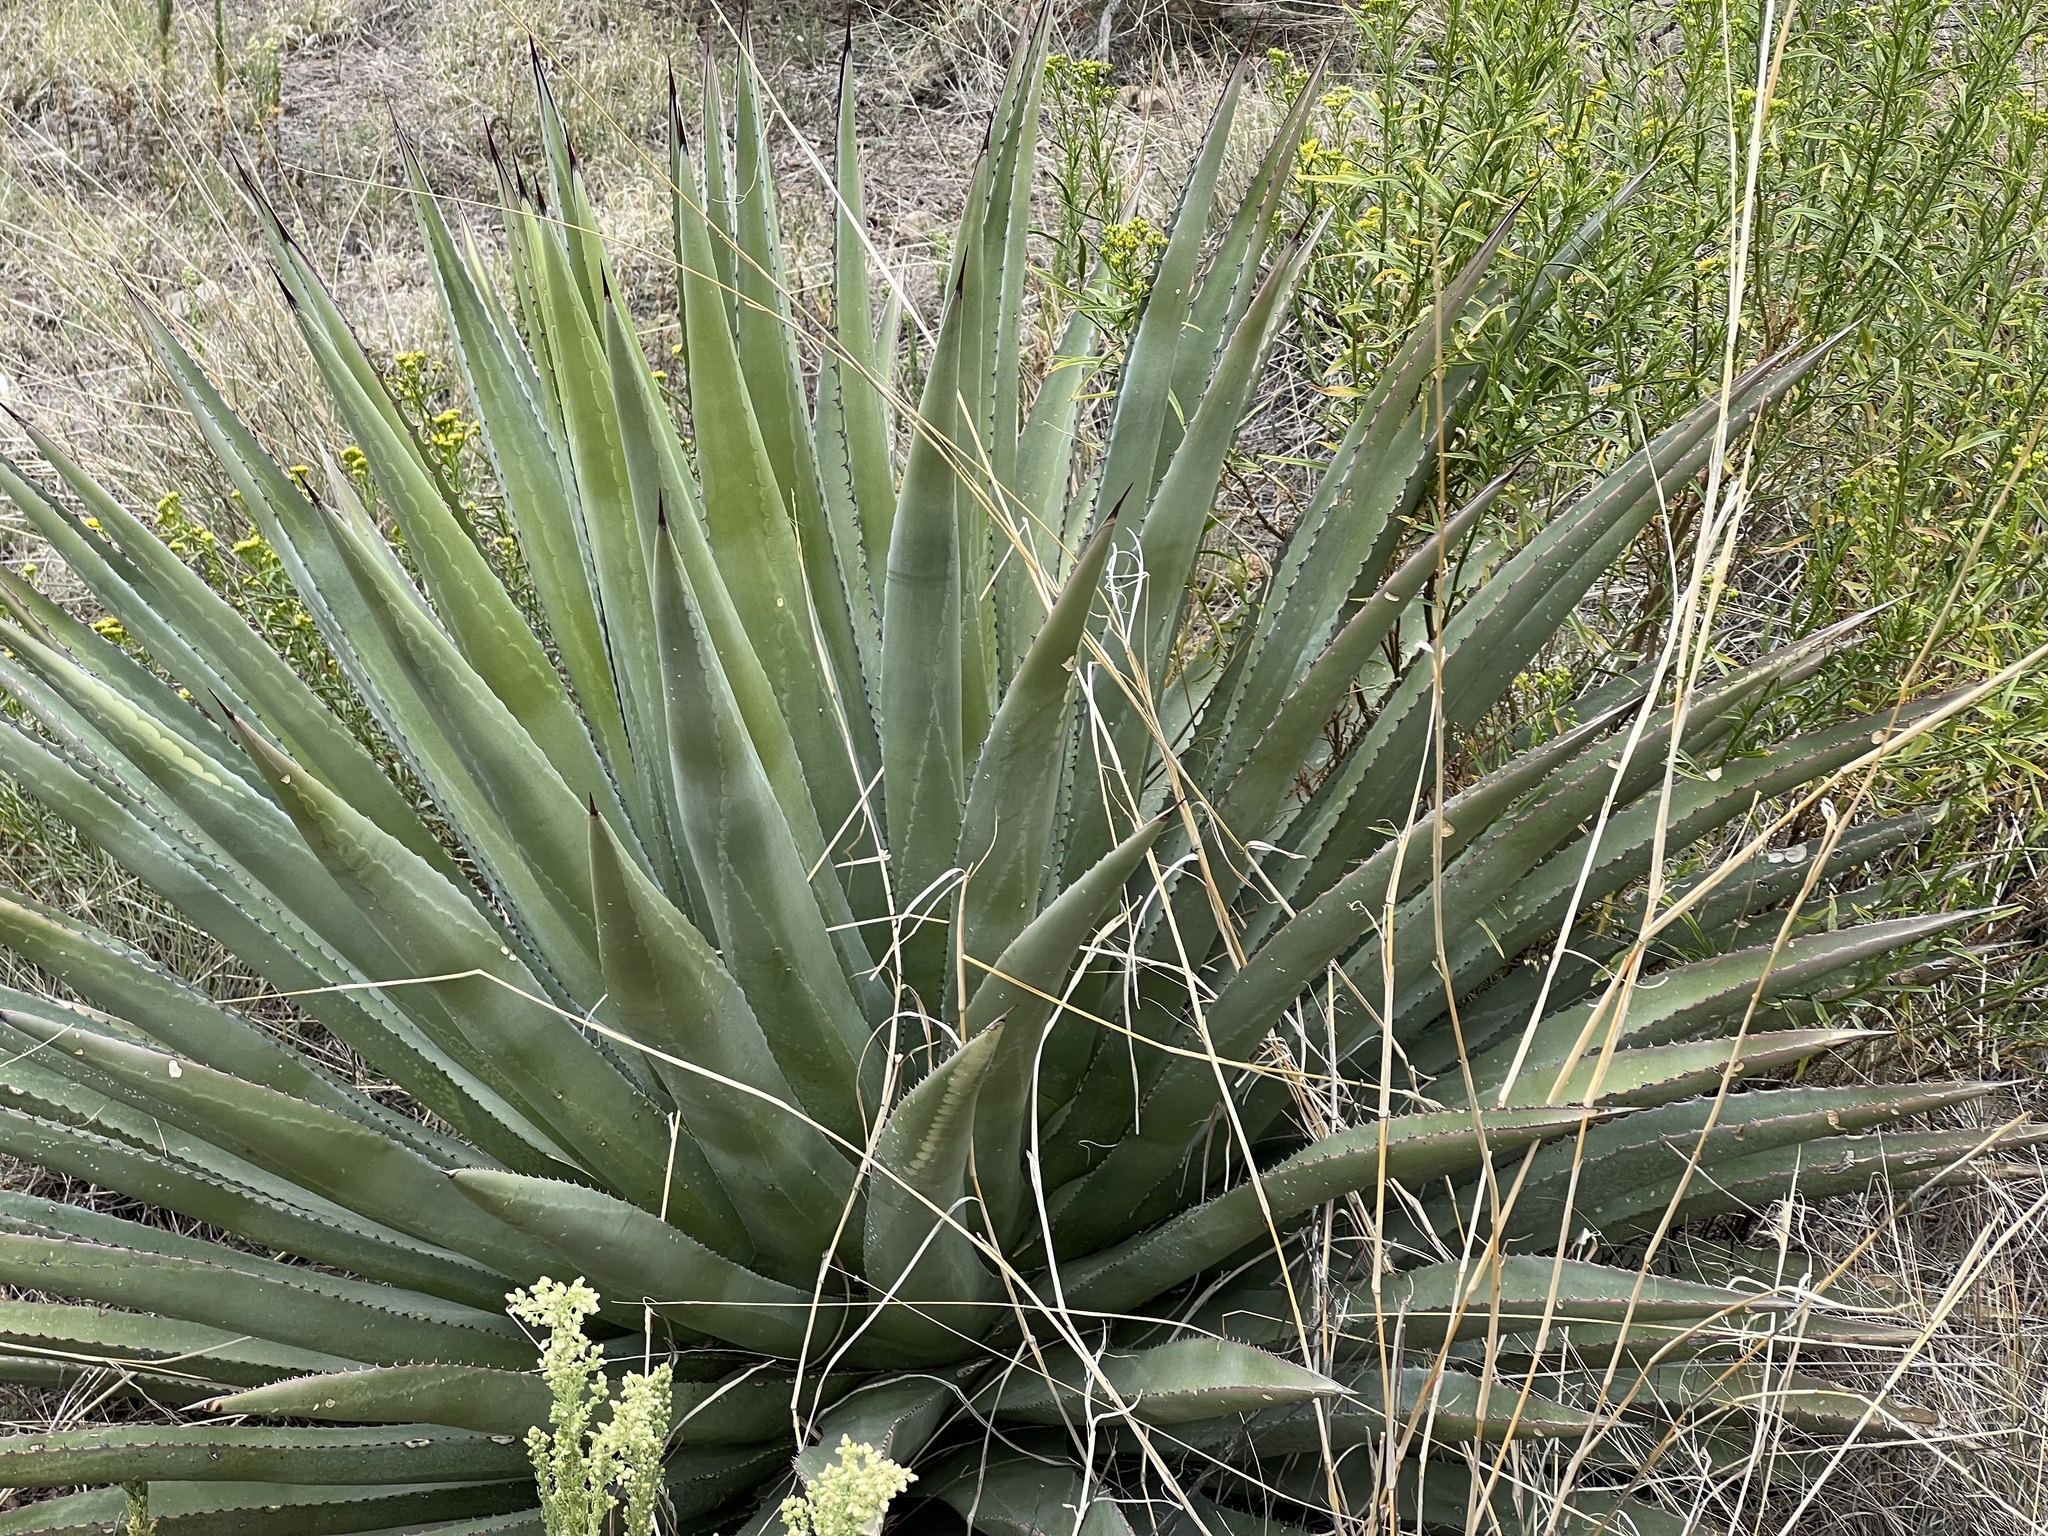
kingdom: Plantae
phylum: Tracheophyta
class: Liliopsida
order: Asparagales
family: Asparagaceae
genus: Agave
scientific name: Agave palmeri
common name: Palmer agave
